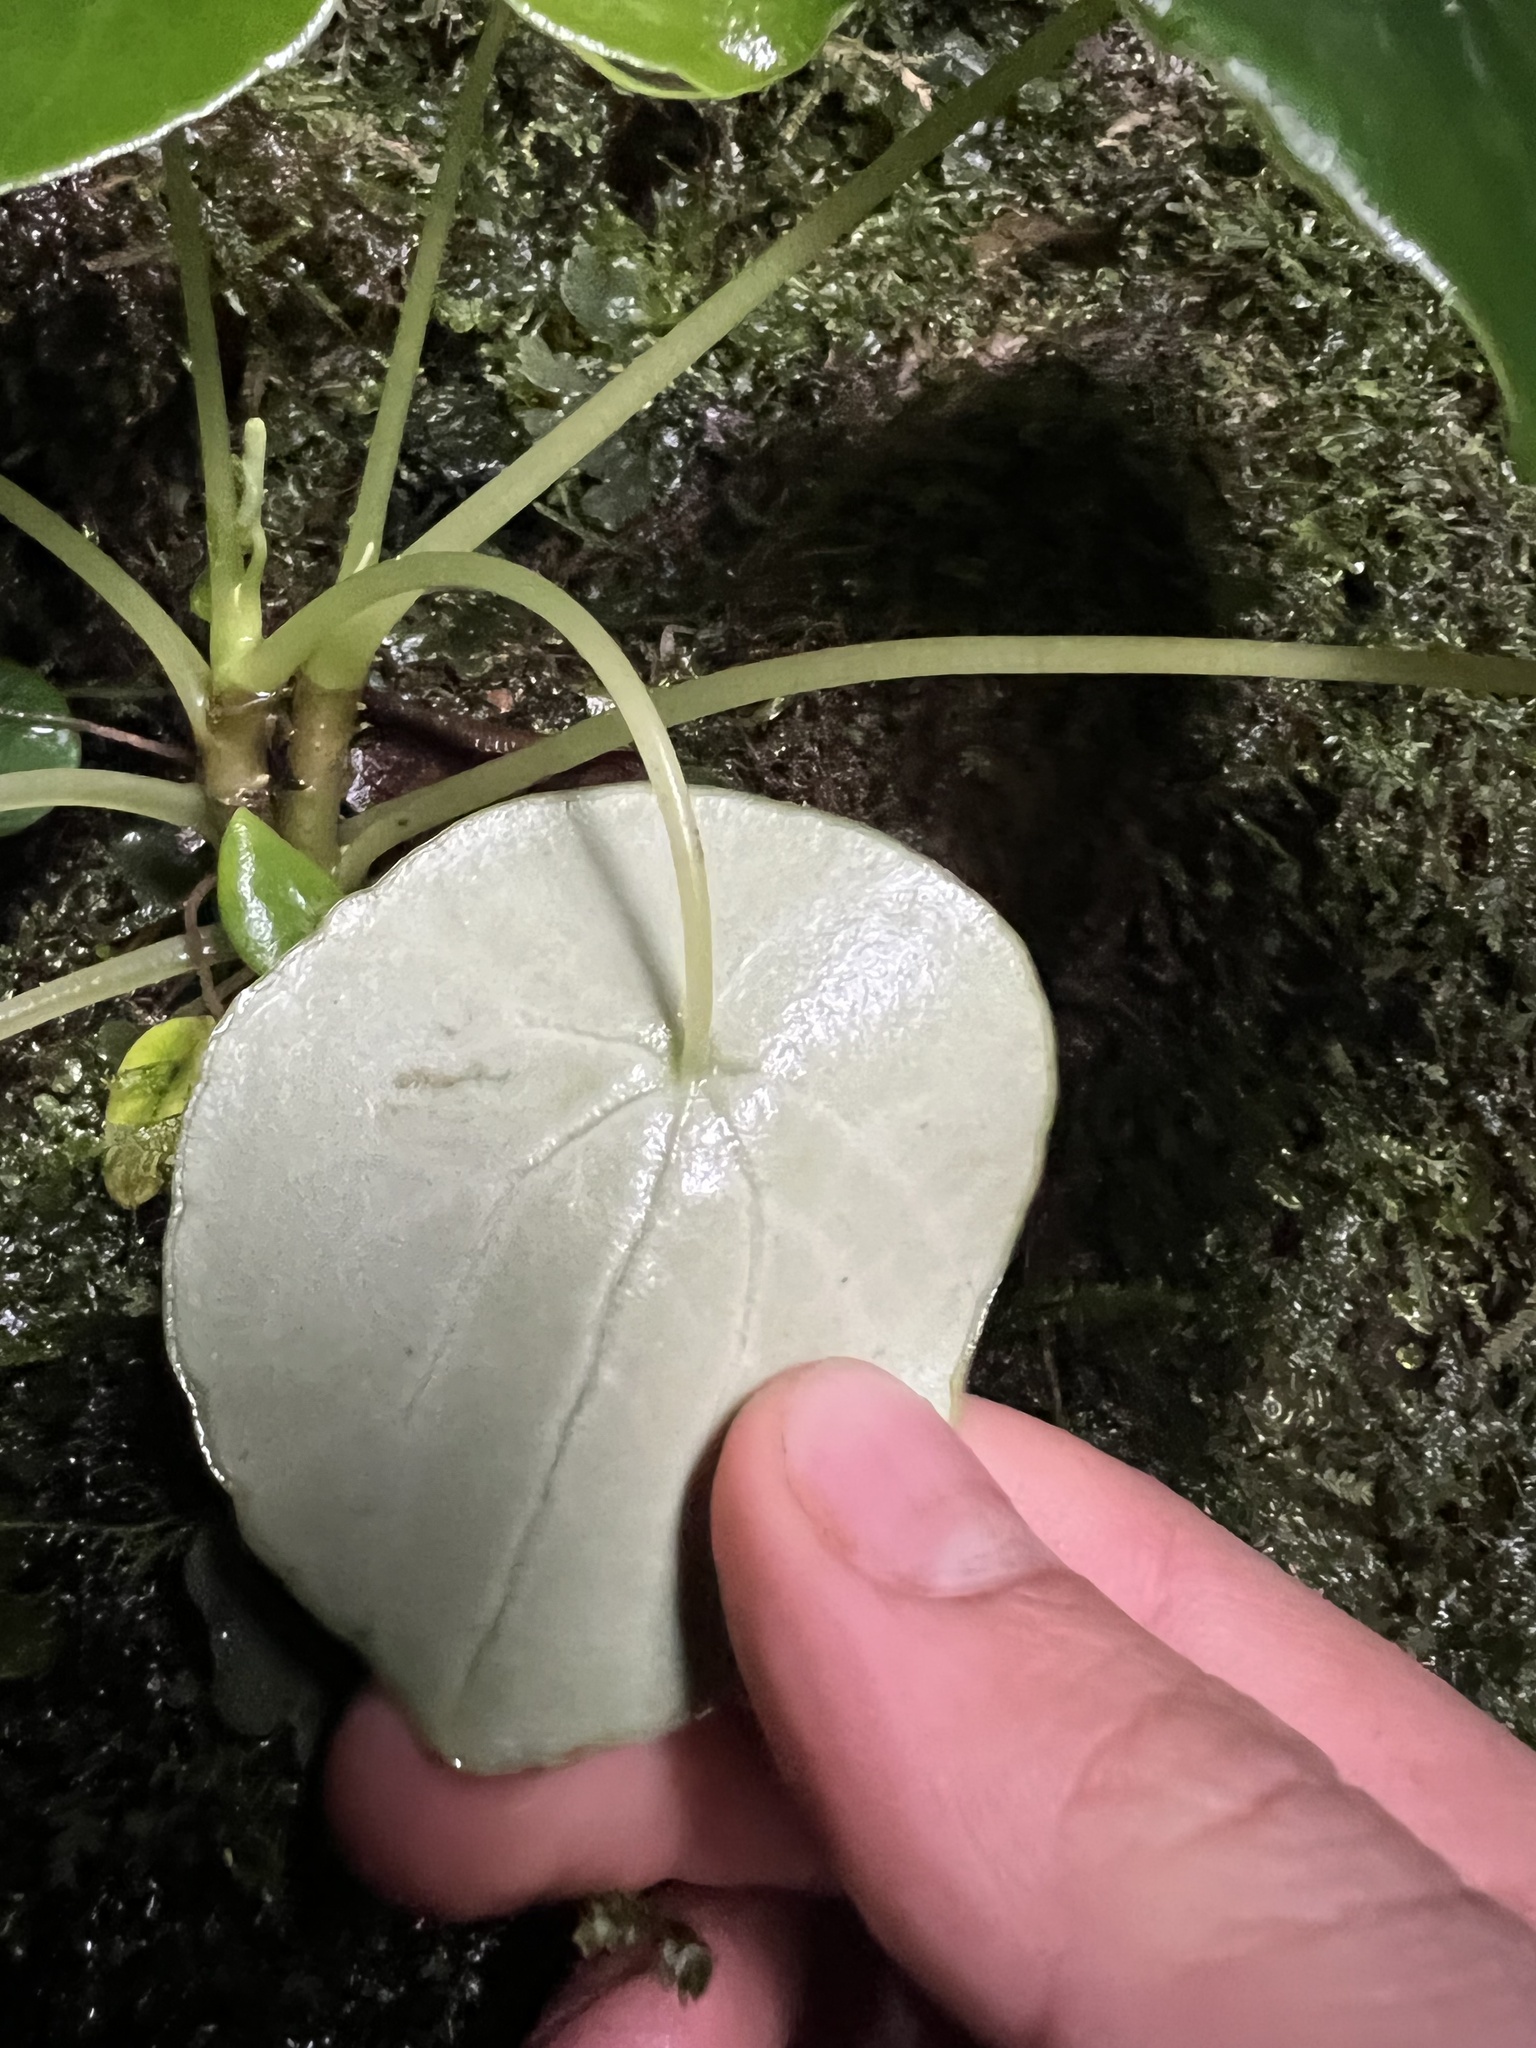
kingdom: Plantae
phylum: Tracheophyta
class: Magnoliopsida
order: Piperales
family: Piperaceae
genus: Peperomia
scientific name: Peperomia tropeoloides
